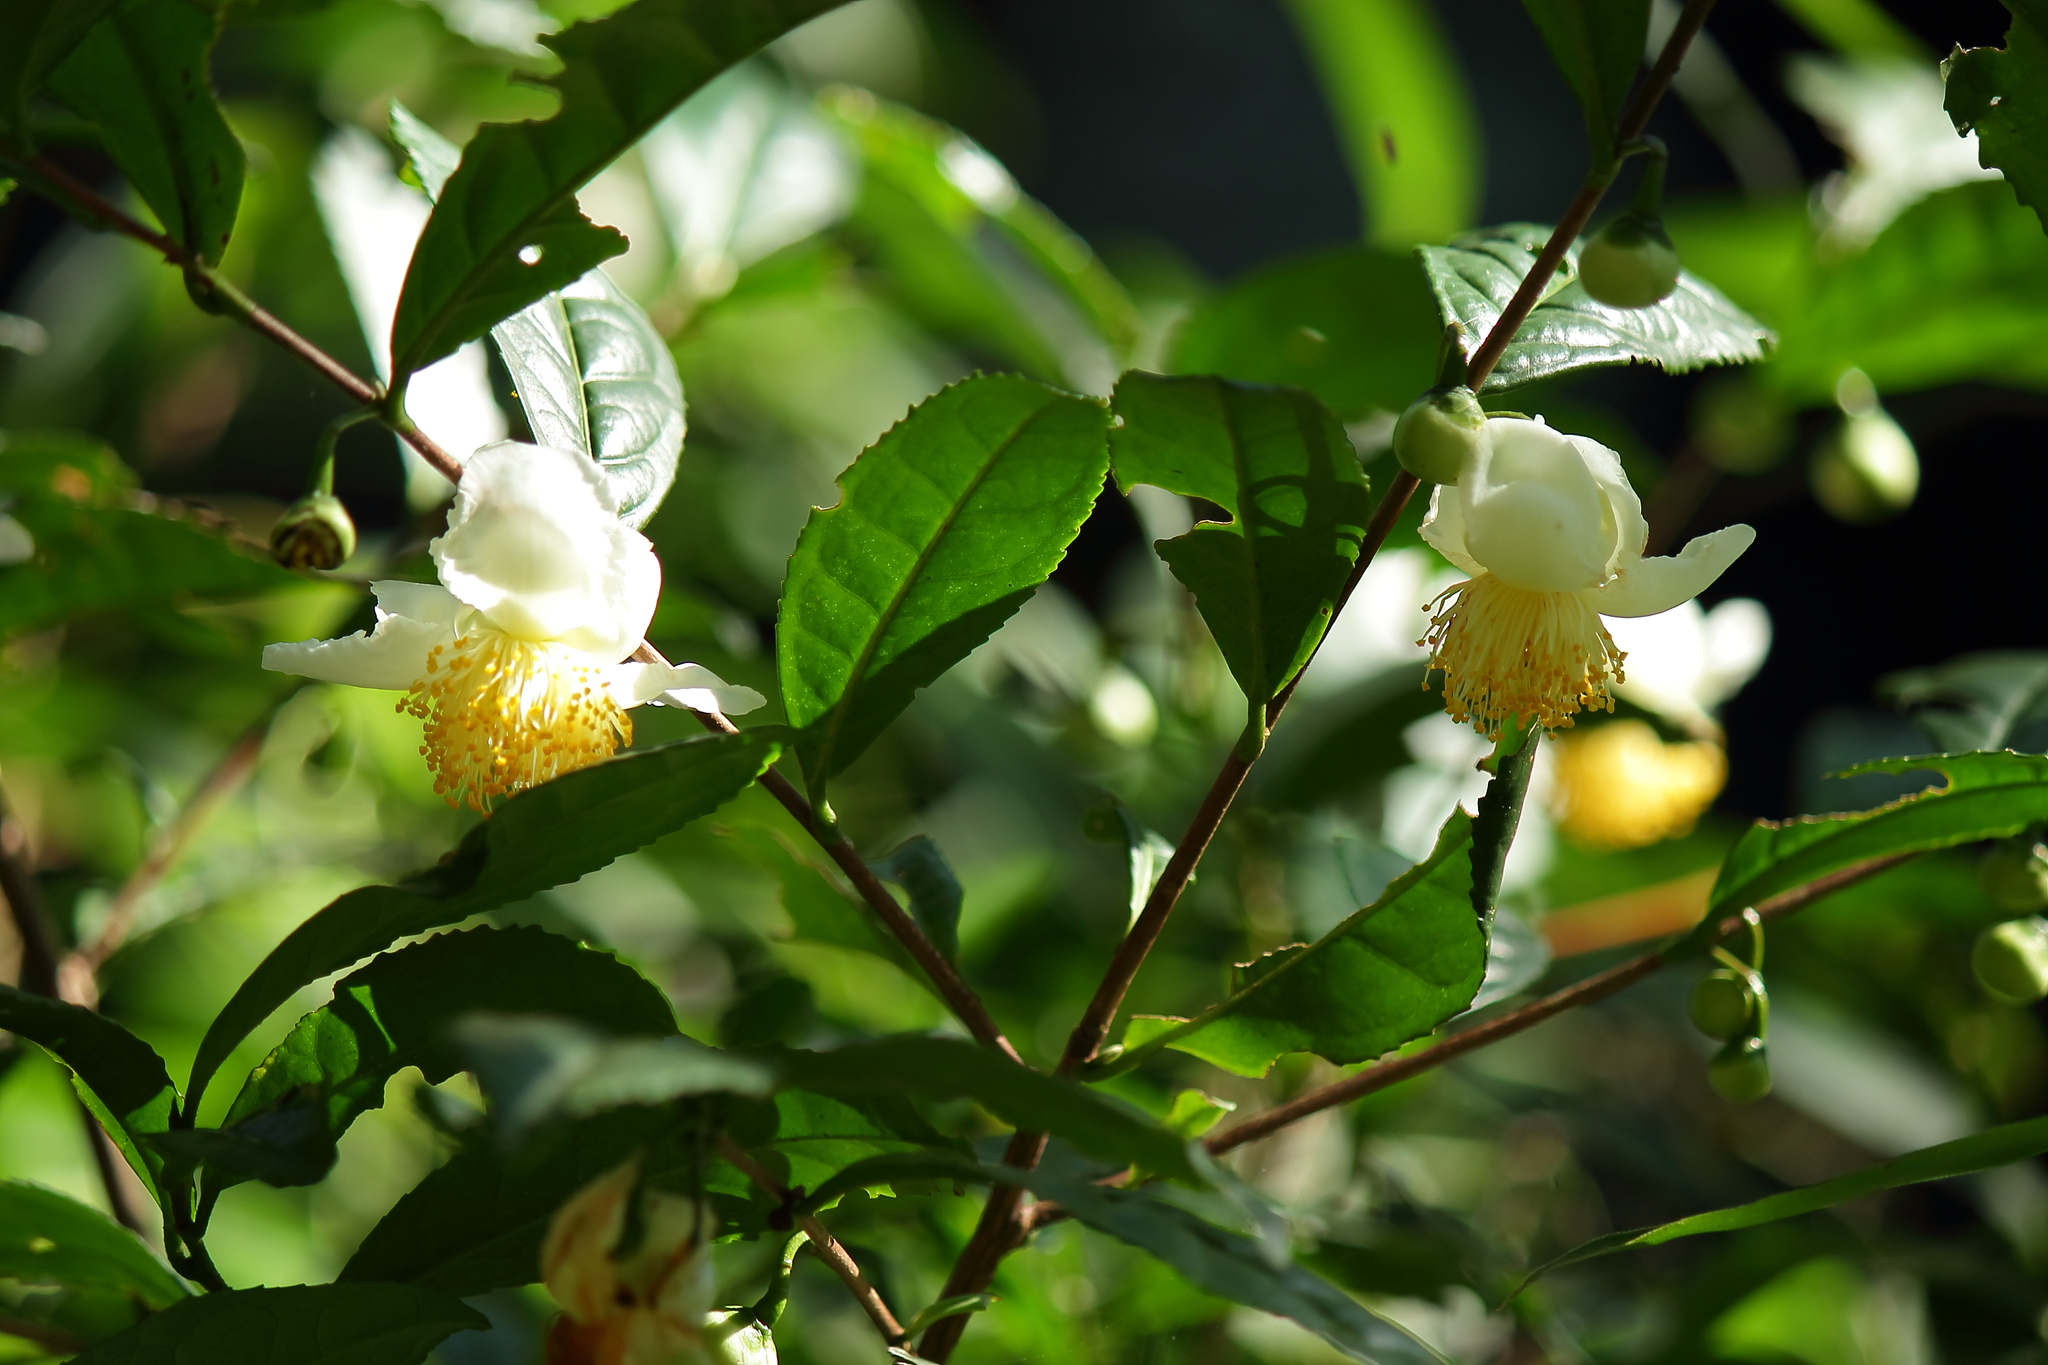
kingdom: Plantae
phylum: Tracheophyta
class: Magnoliopsida
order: Ericales
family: Theaceae
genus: Camellia
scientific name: Camellia sinensis
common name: Tea
